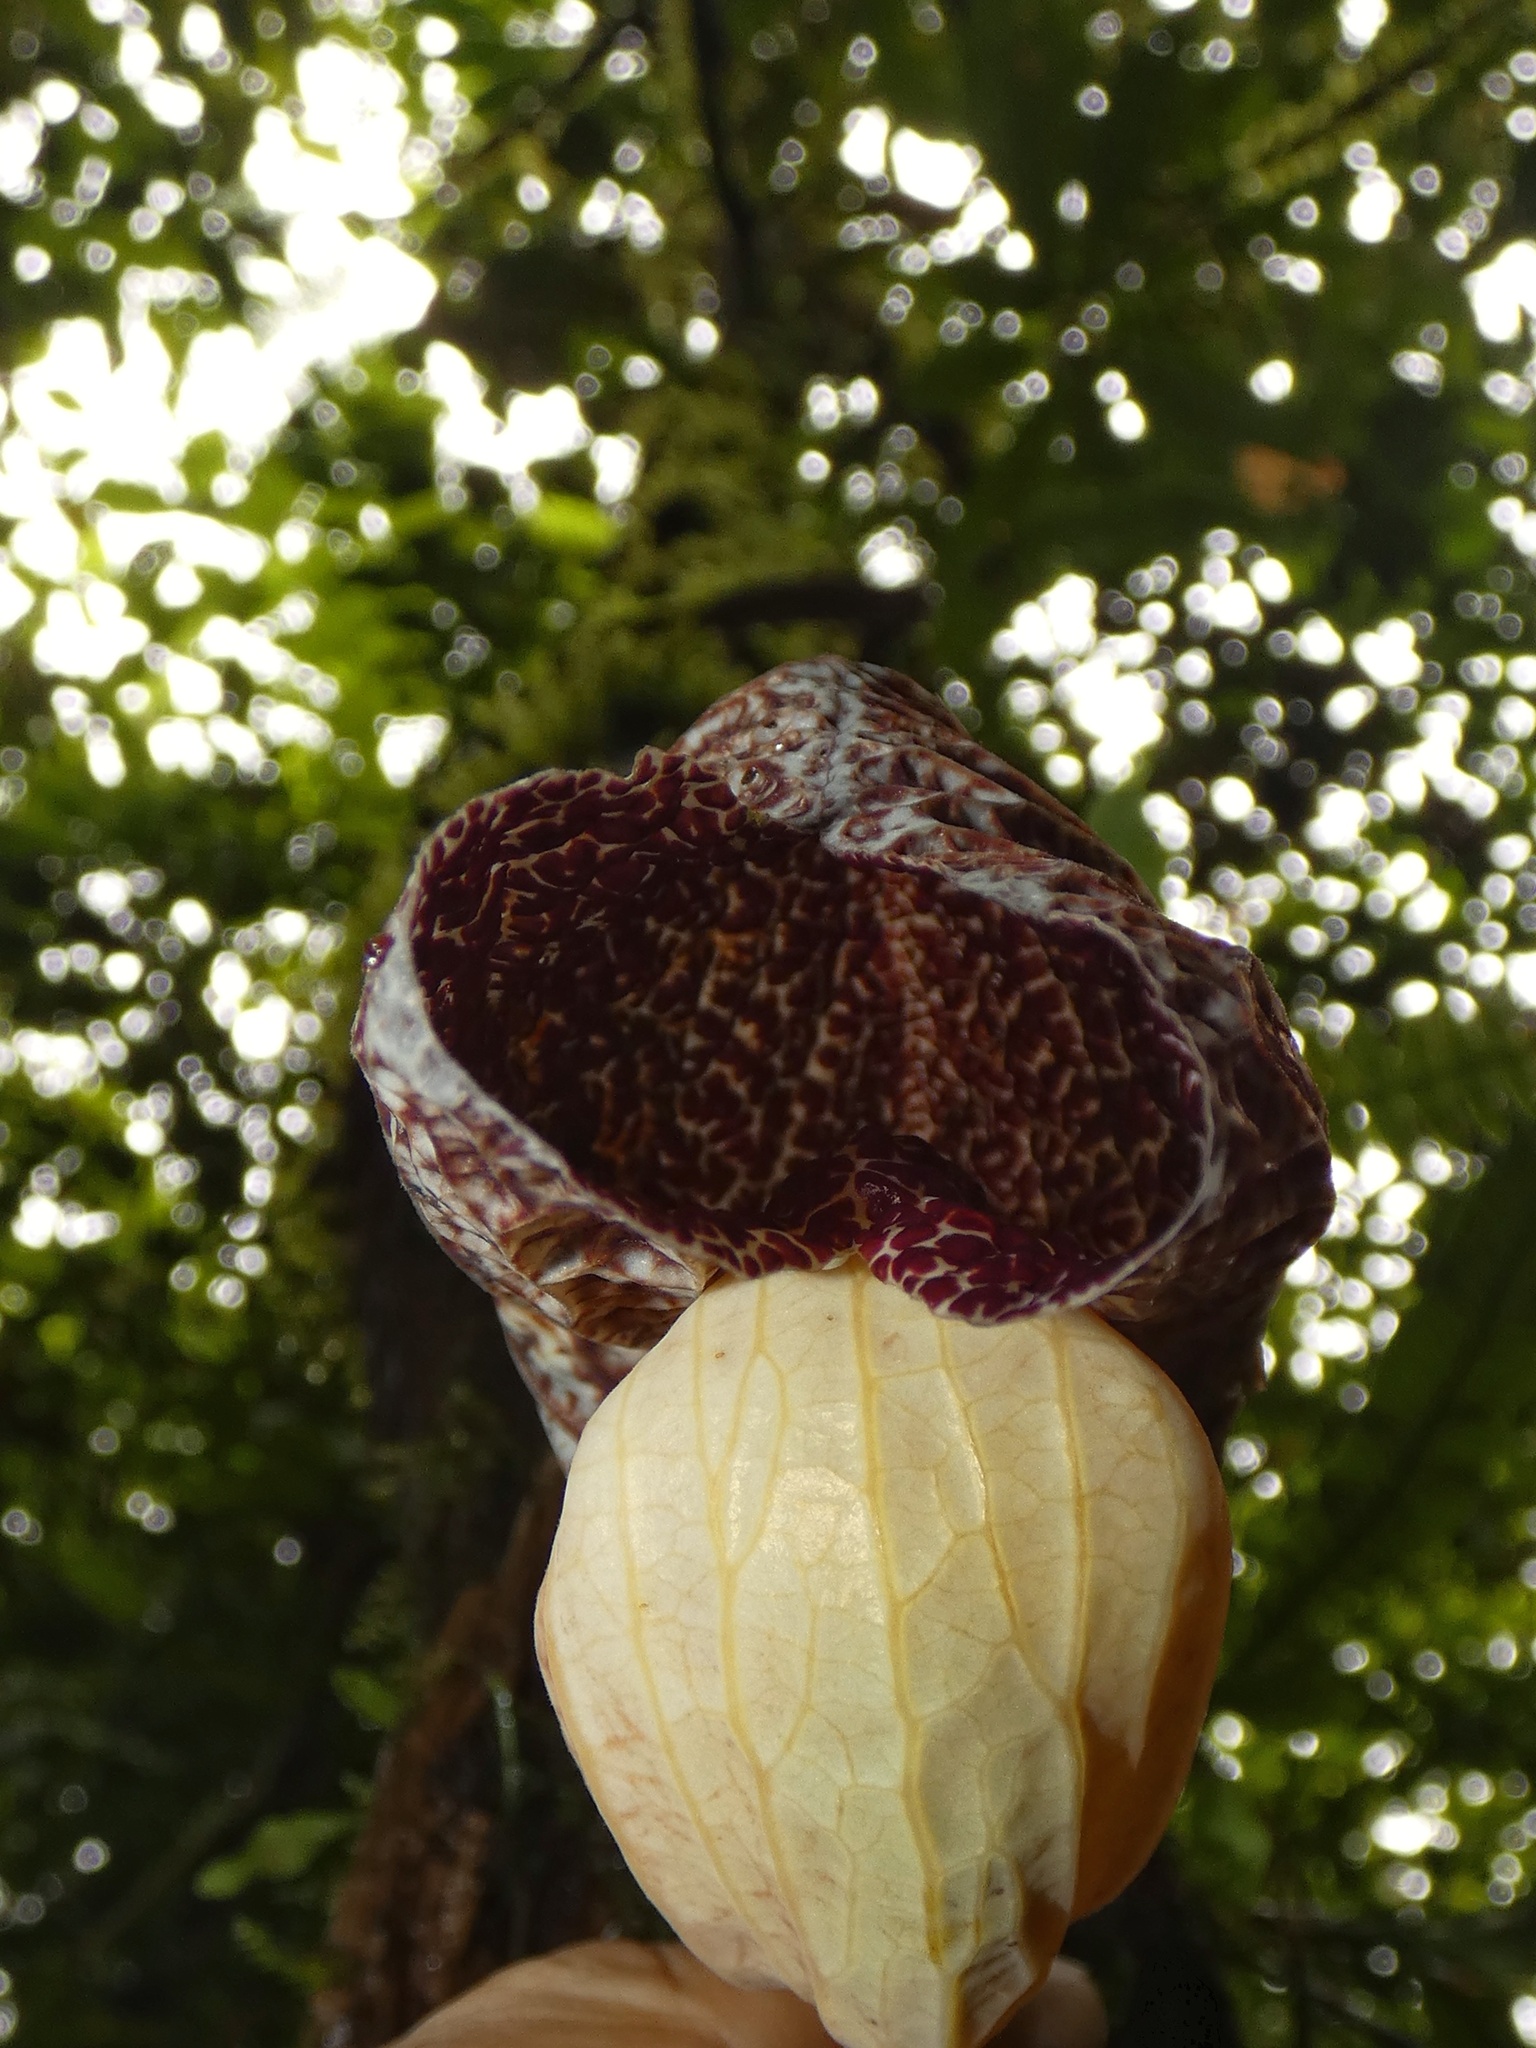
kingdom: Plantae
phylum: Tracheophyta
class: Magnoliopsida
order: Piperales
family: Aristolochiaceae
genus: Aristolochia
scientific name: Aristolochia povedae
